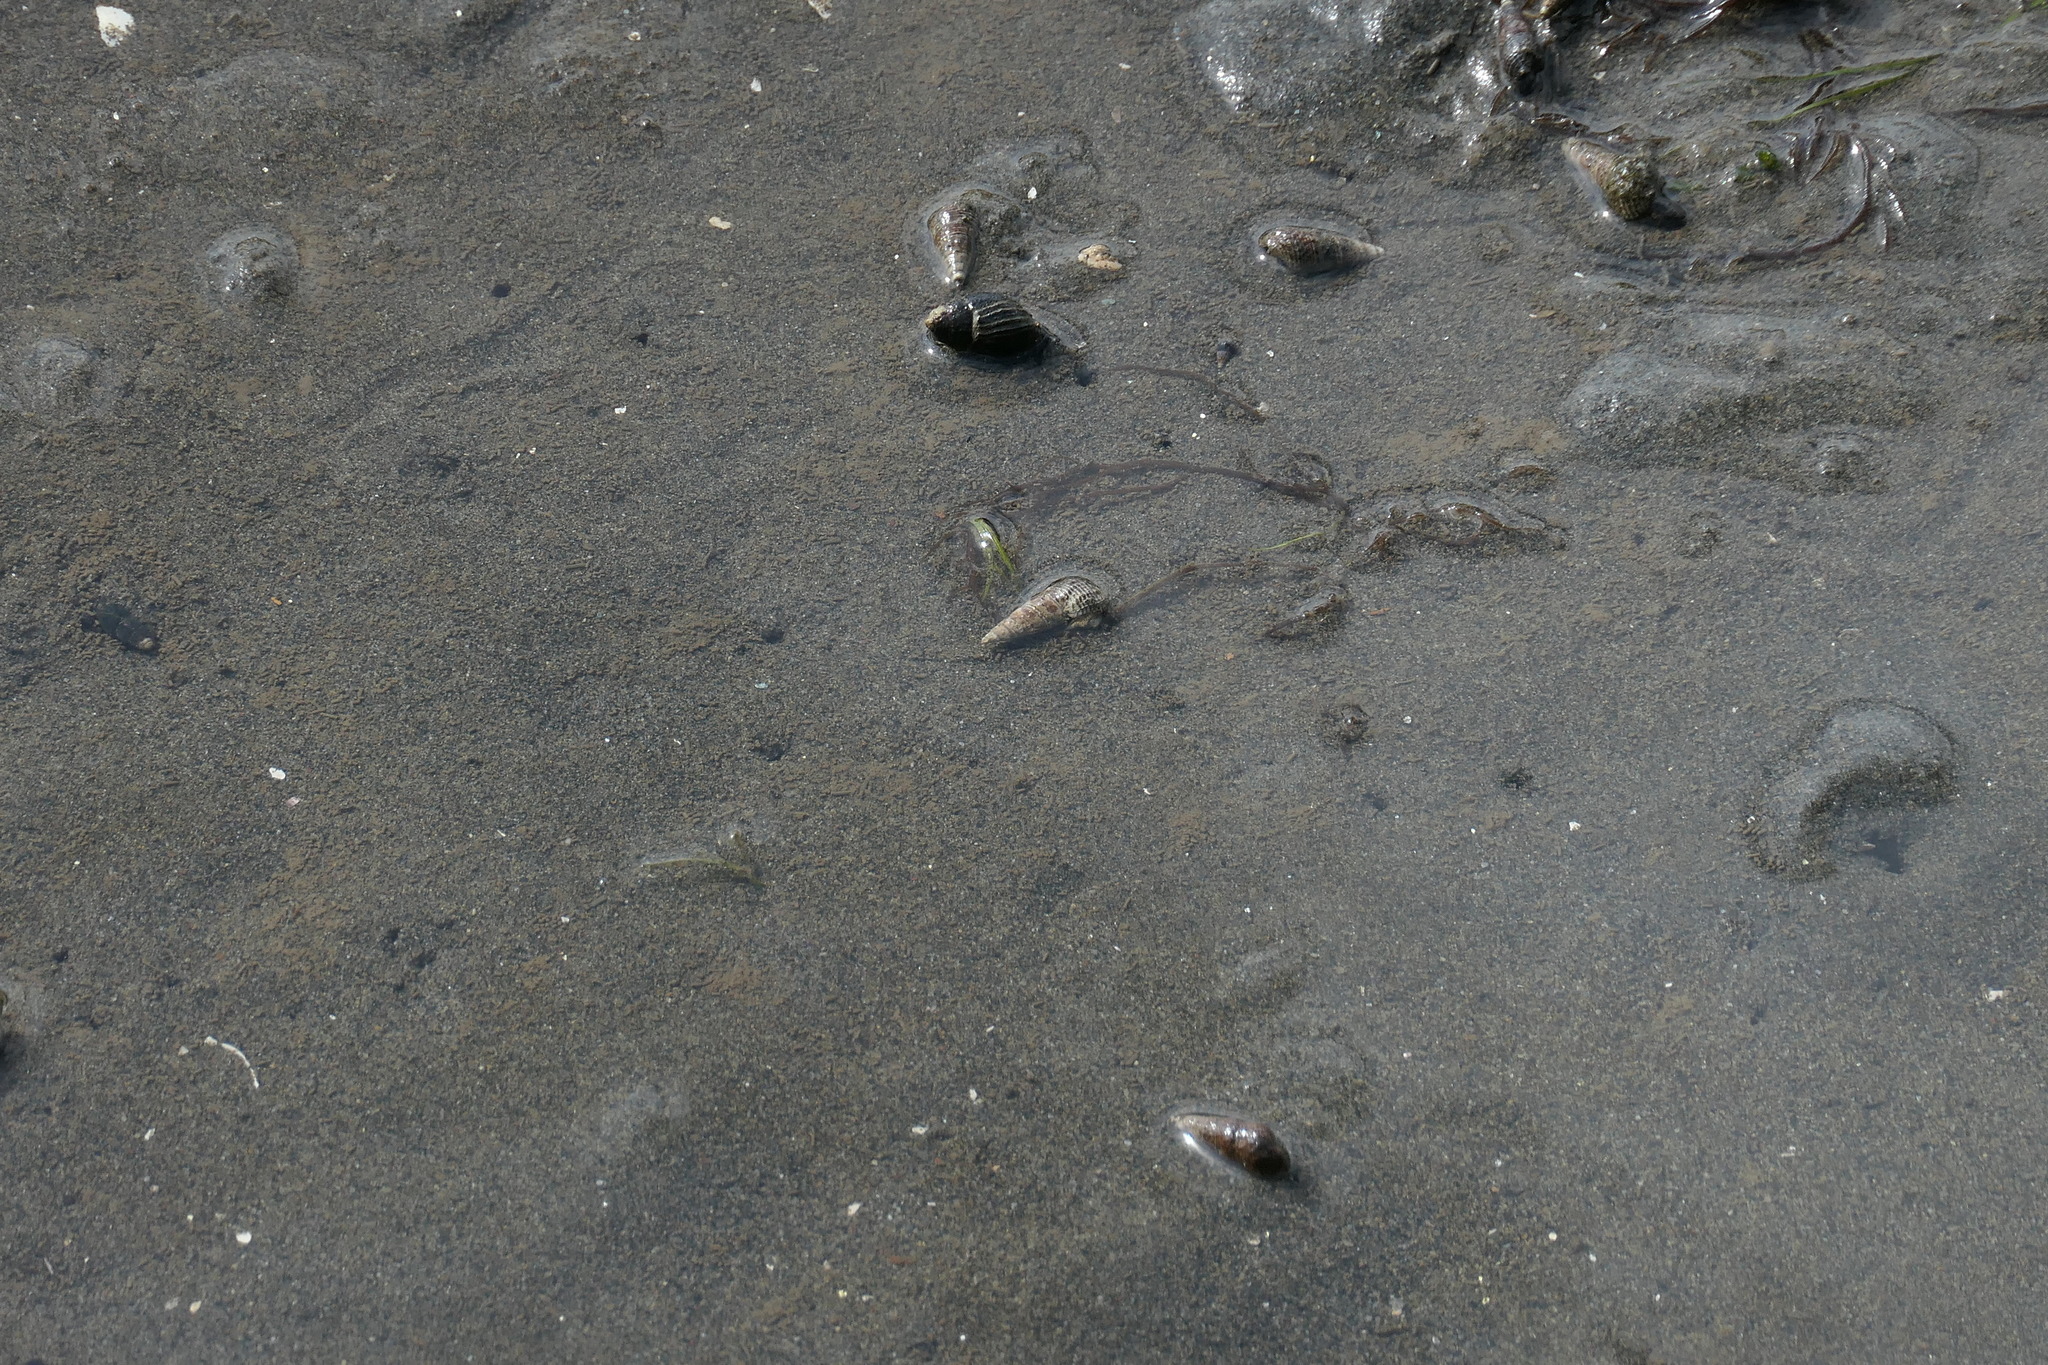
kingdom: Animalia
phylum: Mollusca
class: Gastropoda
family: Batillariidae
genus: Batillaria
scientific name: Batillaria attramentaria
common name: Japanese false cerith
